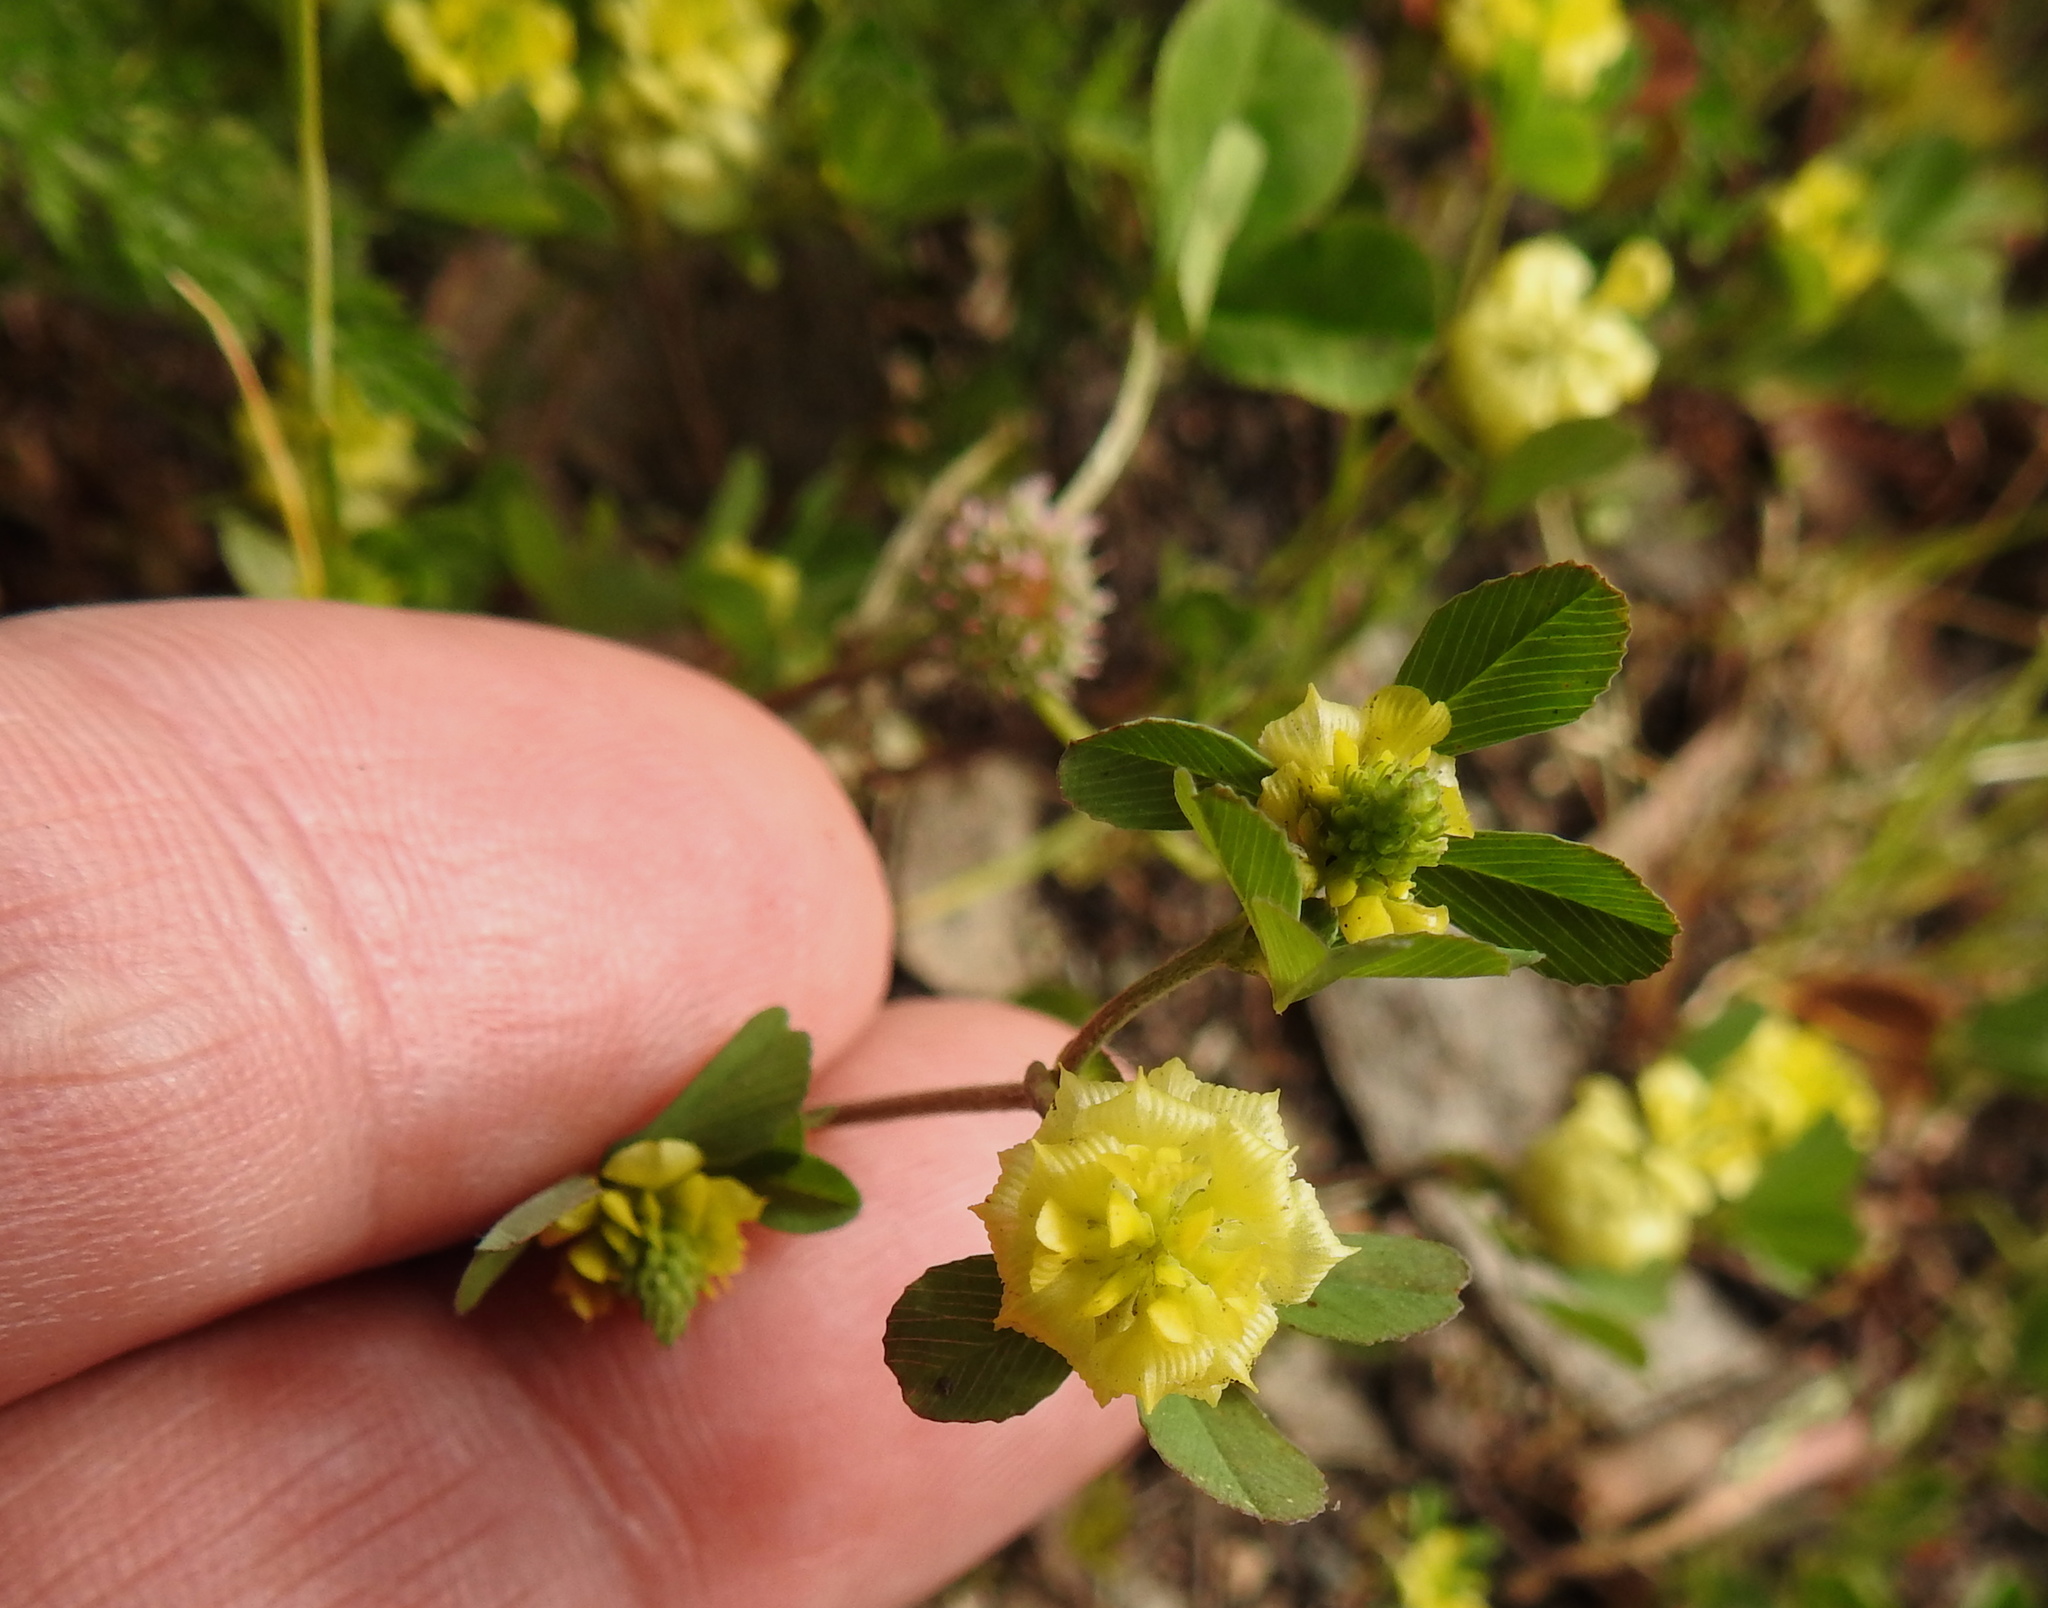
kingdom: Plantae
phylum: Tracheophyta
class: Magnoliopsida
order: Fabales
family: Fabaceae
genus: Trifolium
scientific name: Trifolium campestre
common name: Field clover
